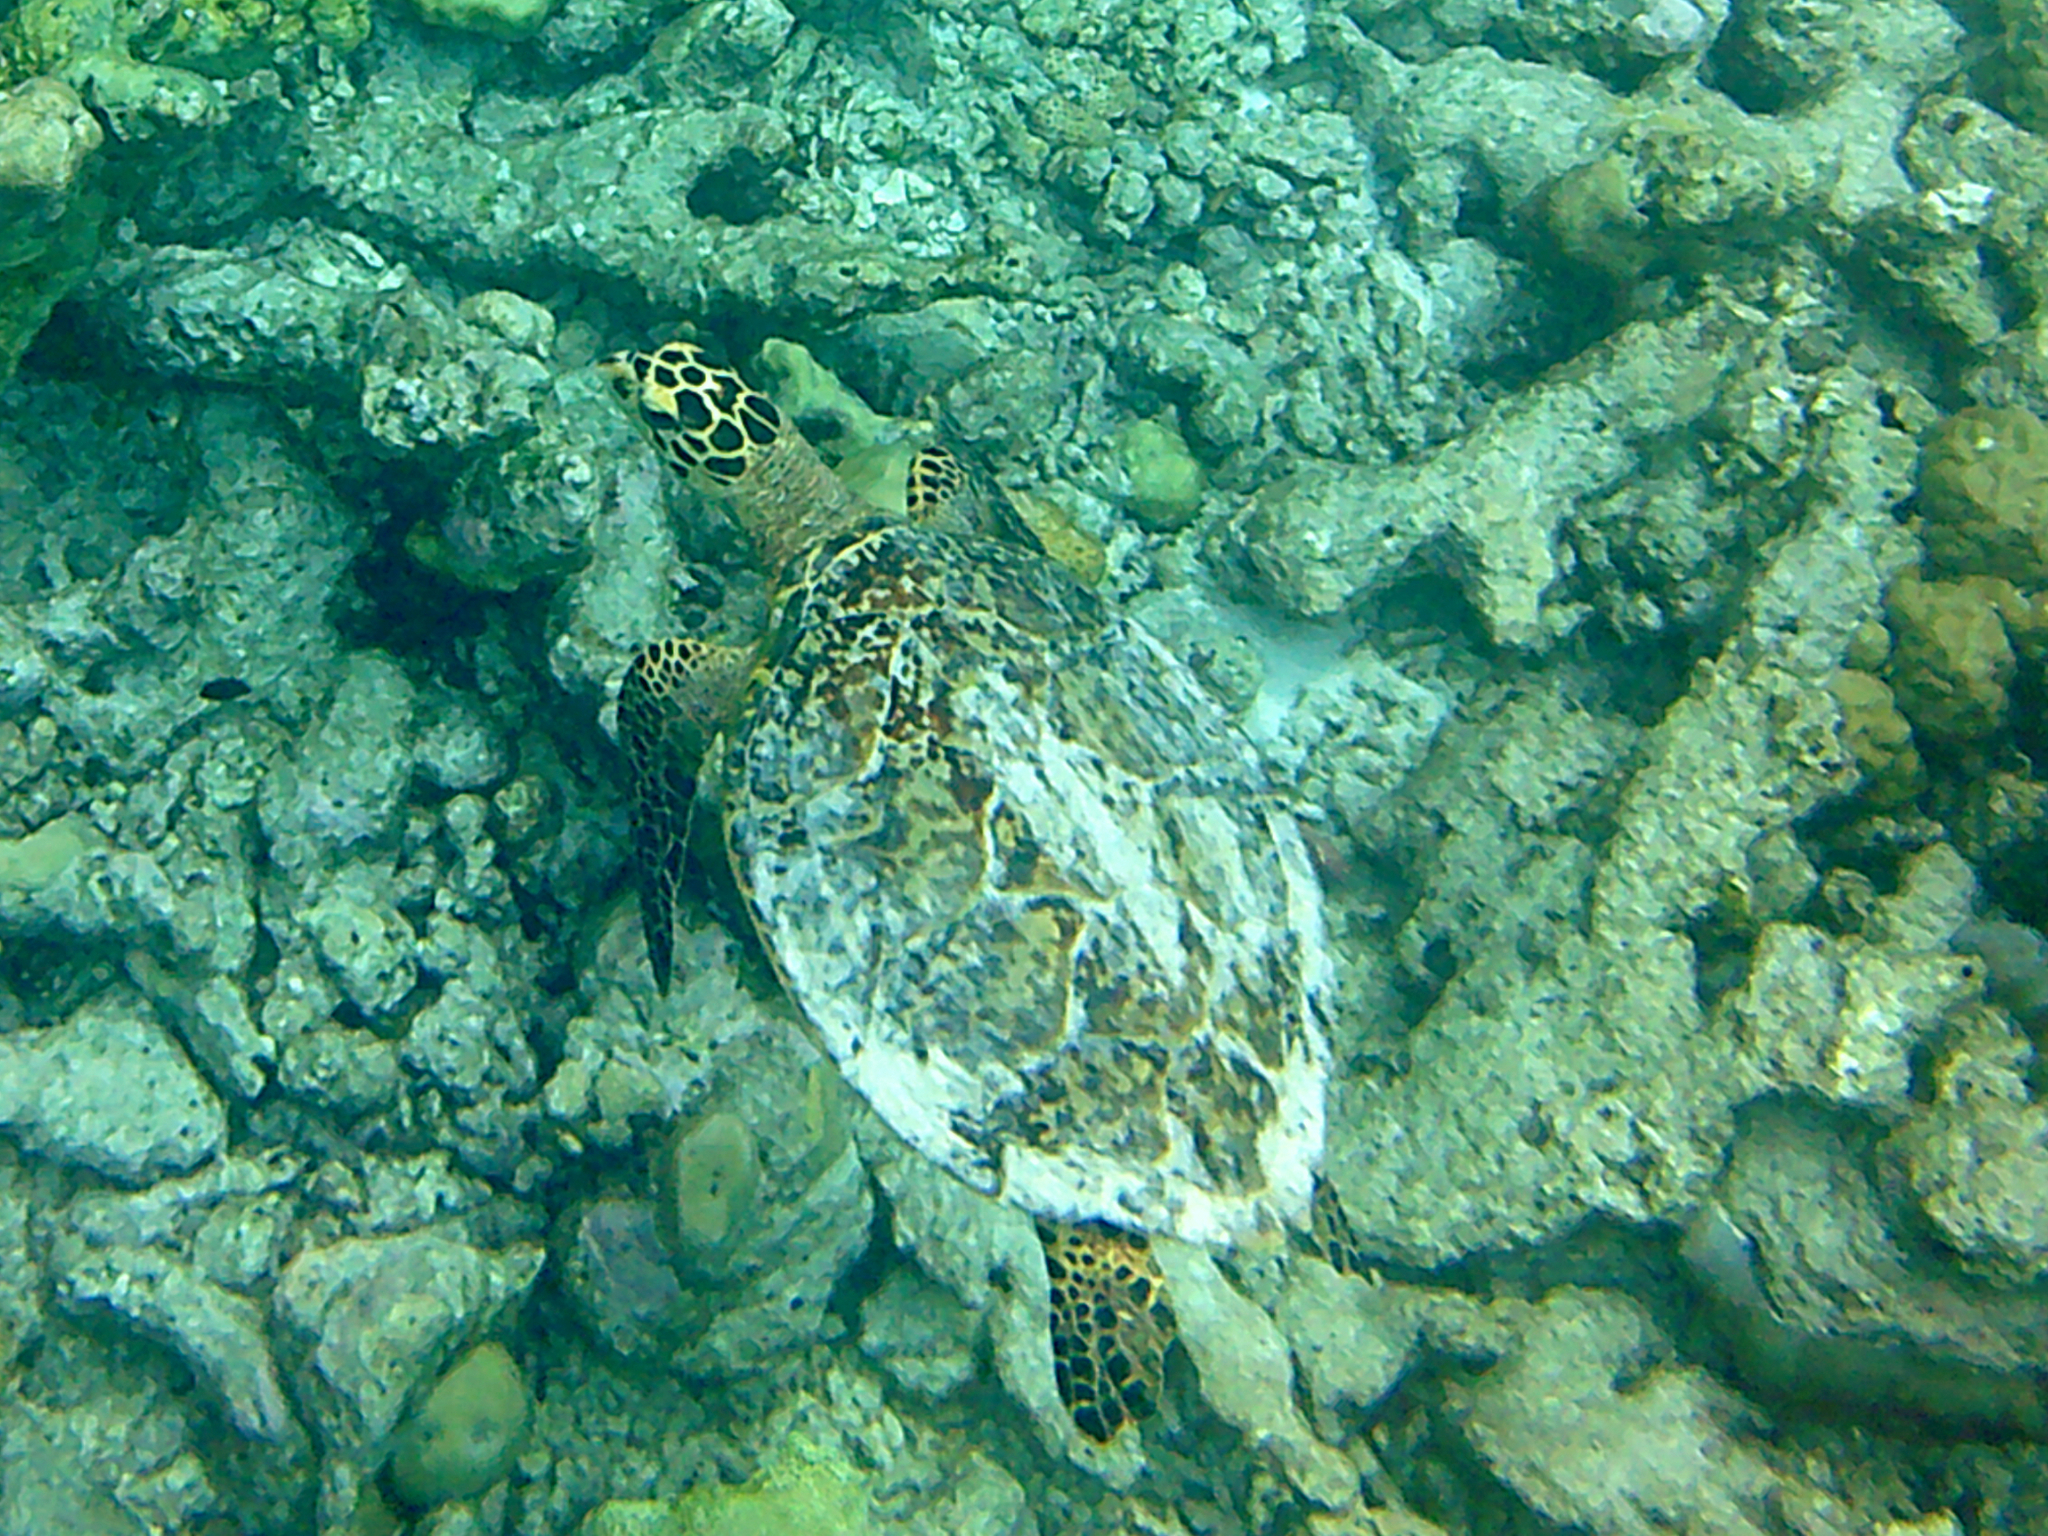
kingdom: Animalia
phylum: Chordata
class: Testudines
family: Cheloniidae
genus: Eretmochelys
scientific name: Eretmochelys imbricata
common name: Hawksbill turtle
